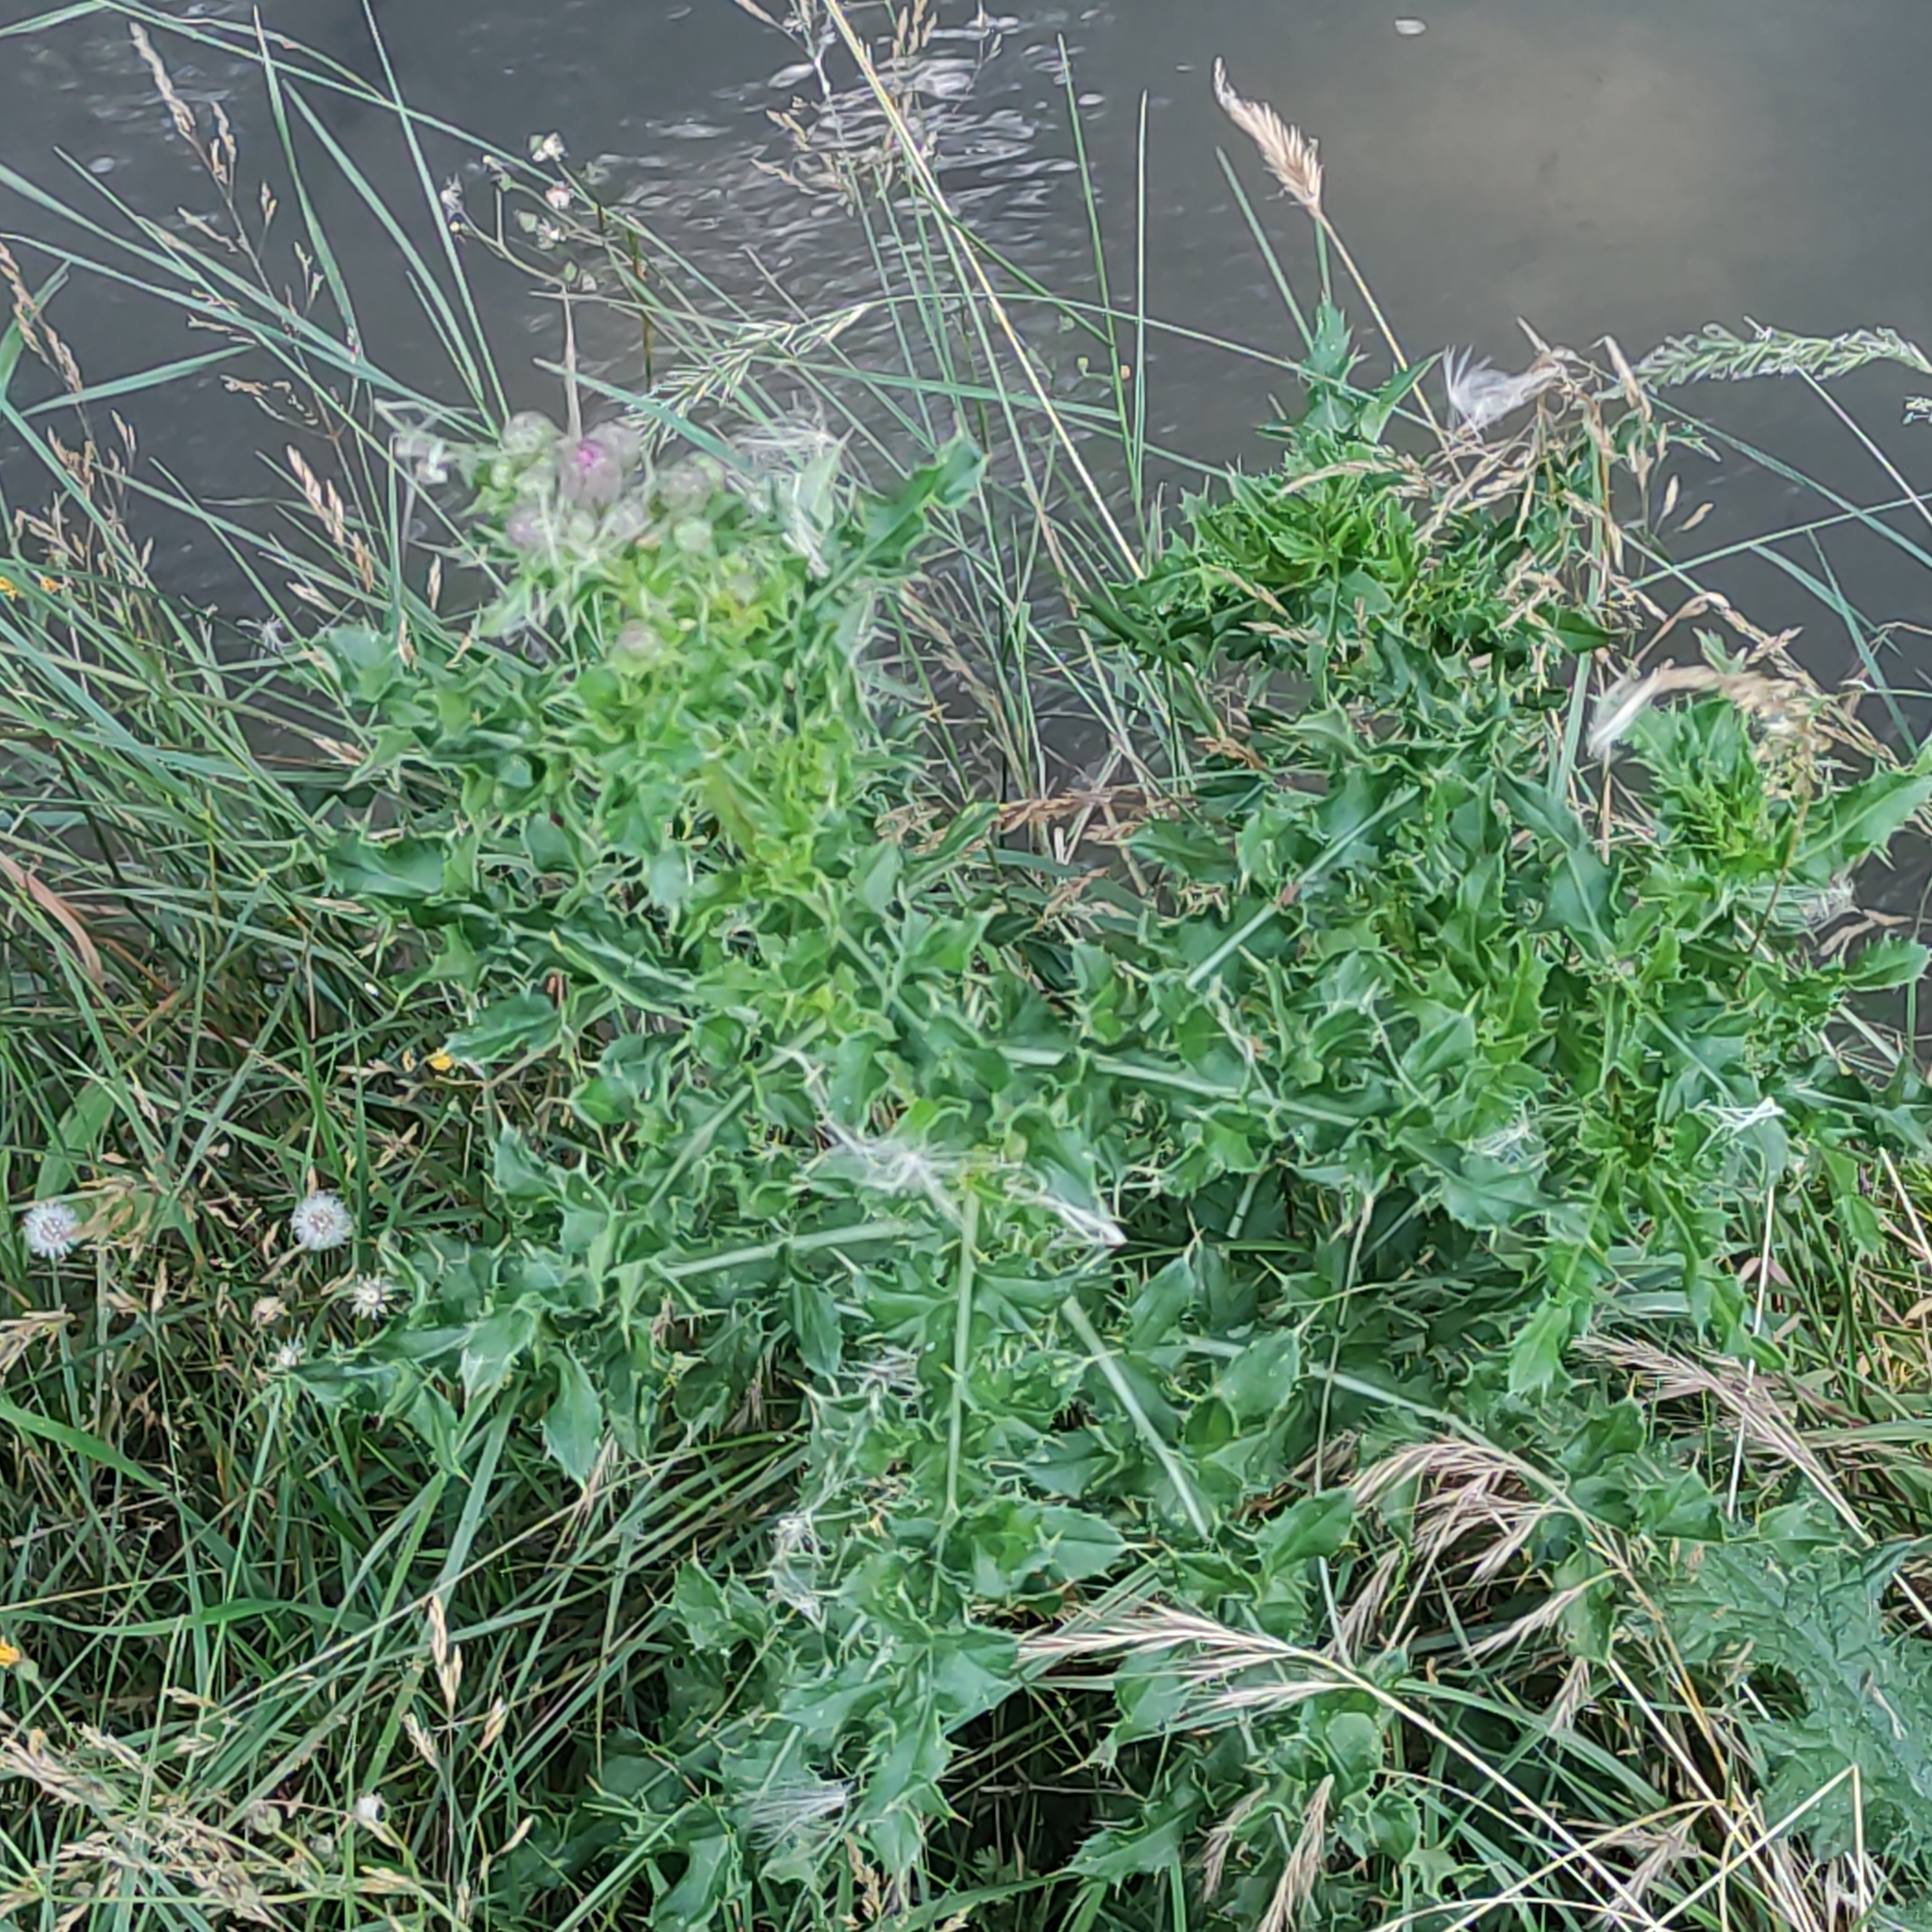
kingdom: Plantae
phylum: Tracheophyta
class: Magnoliopsida
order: Asterales
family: Asteraceae
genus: Cirsium
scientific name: Cirsium arvense
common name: Creeping thistle
